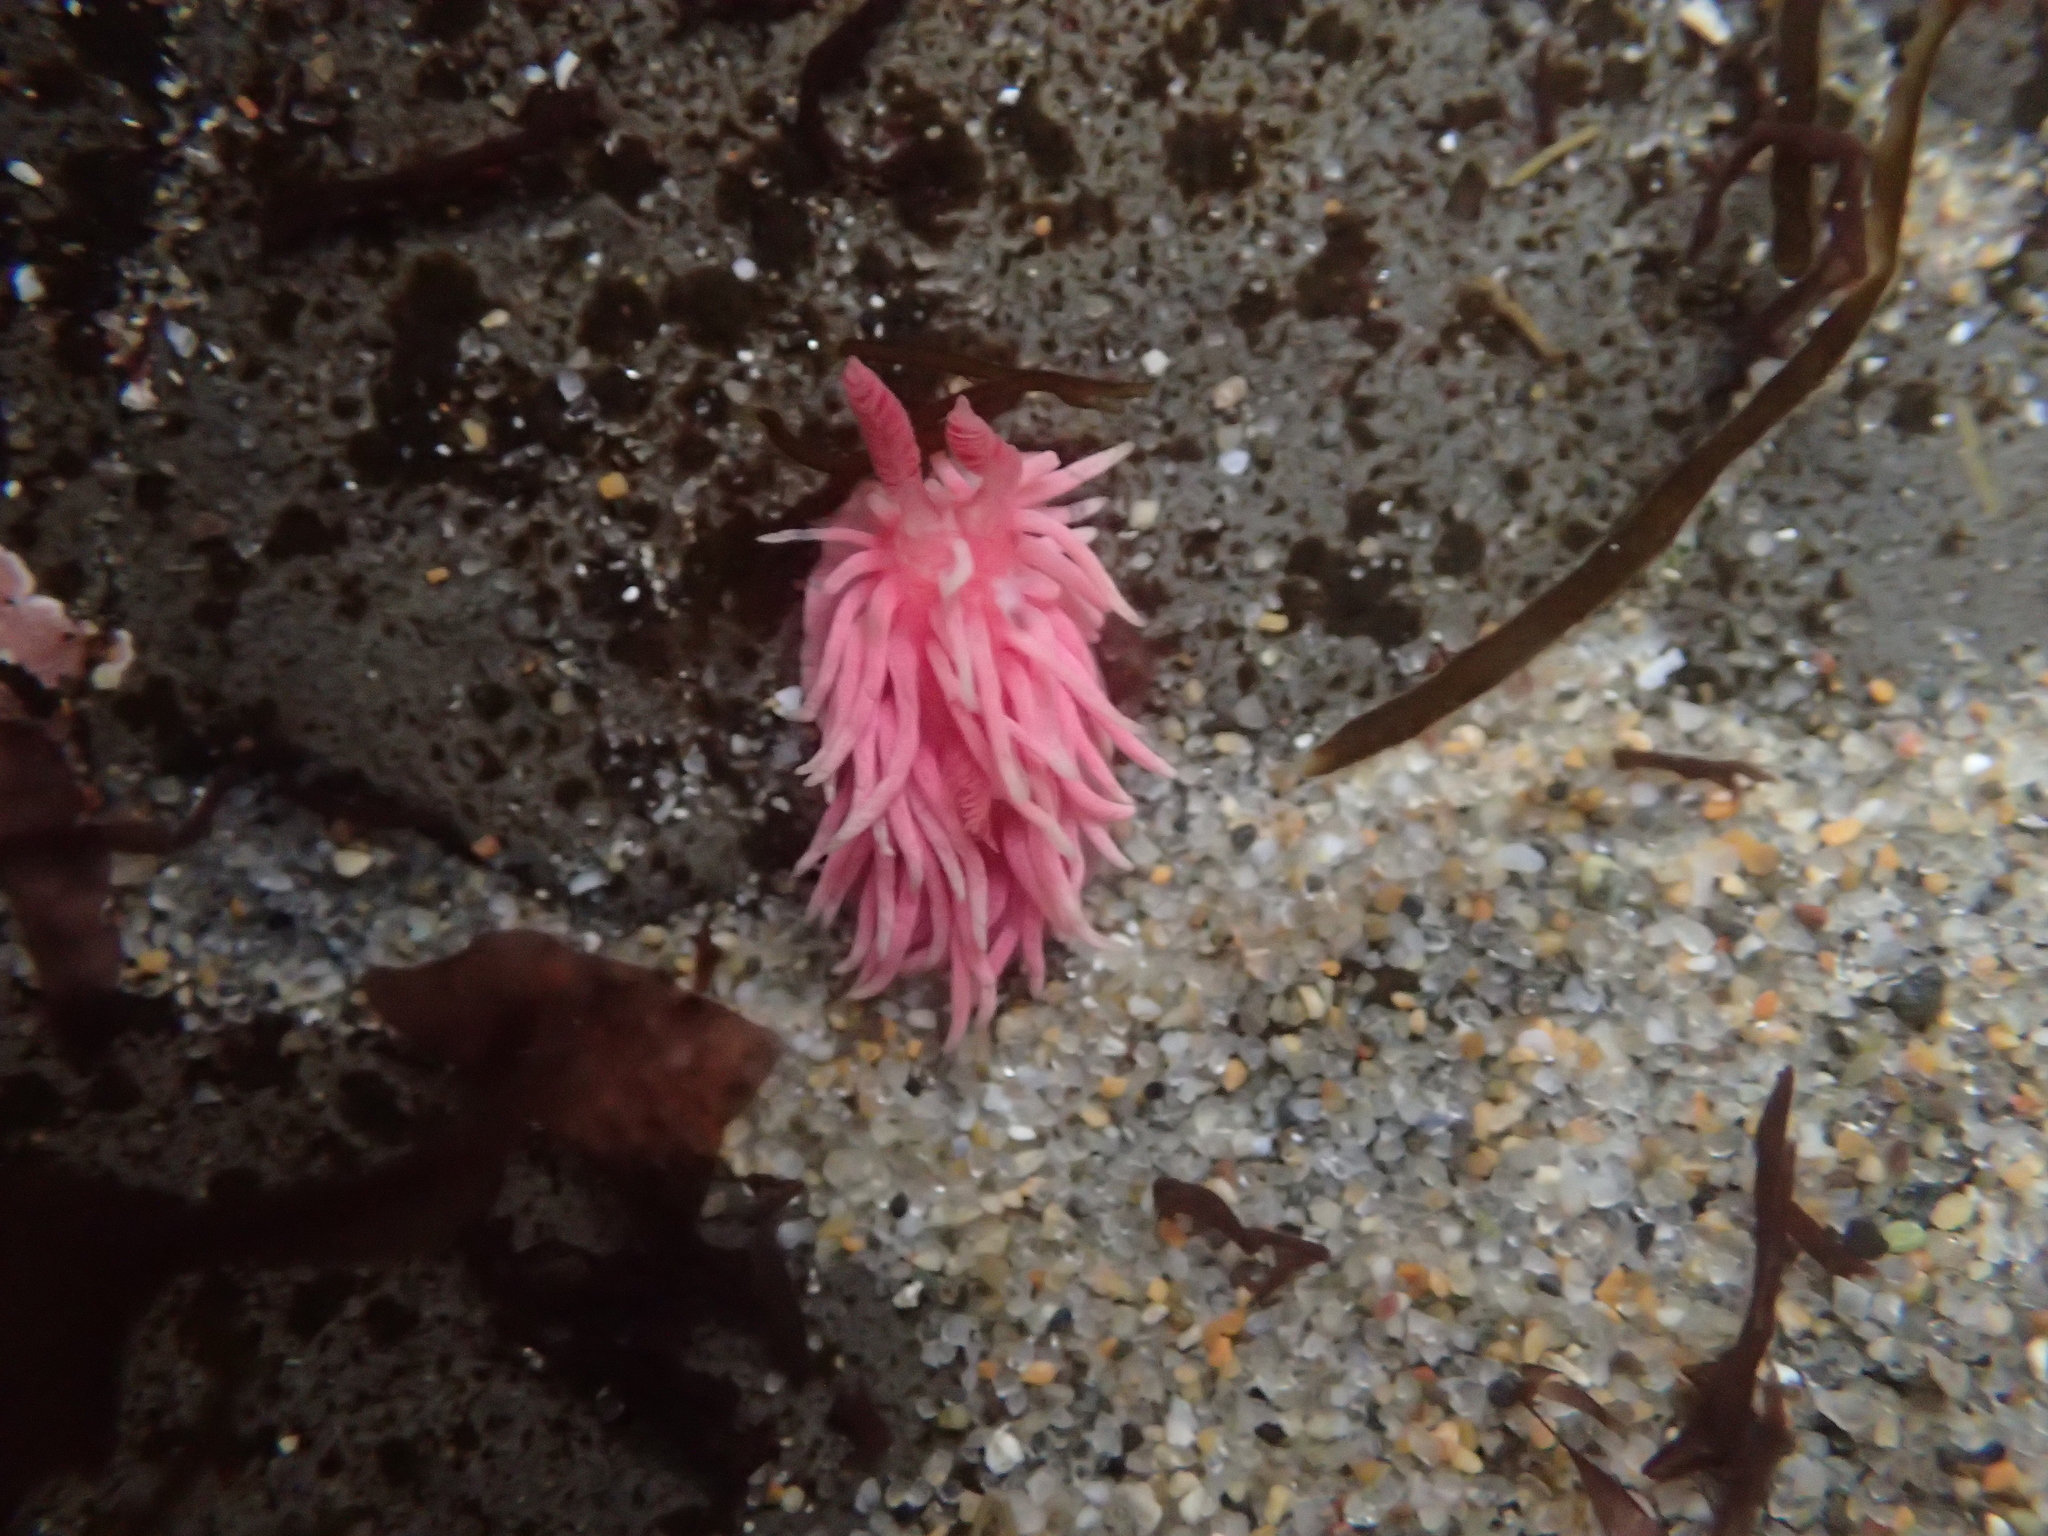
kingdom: Animalia
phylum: Mollusca
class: Gastropoda
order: Nudibranchia
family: Goniodorididae
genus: Okenia
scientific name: Okenia
